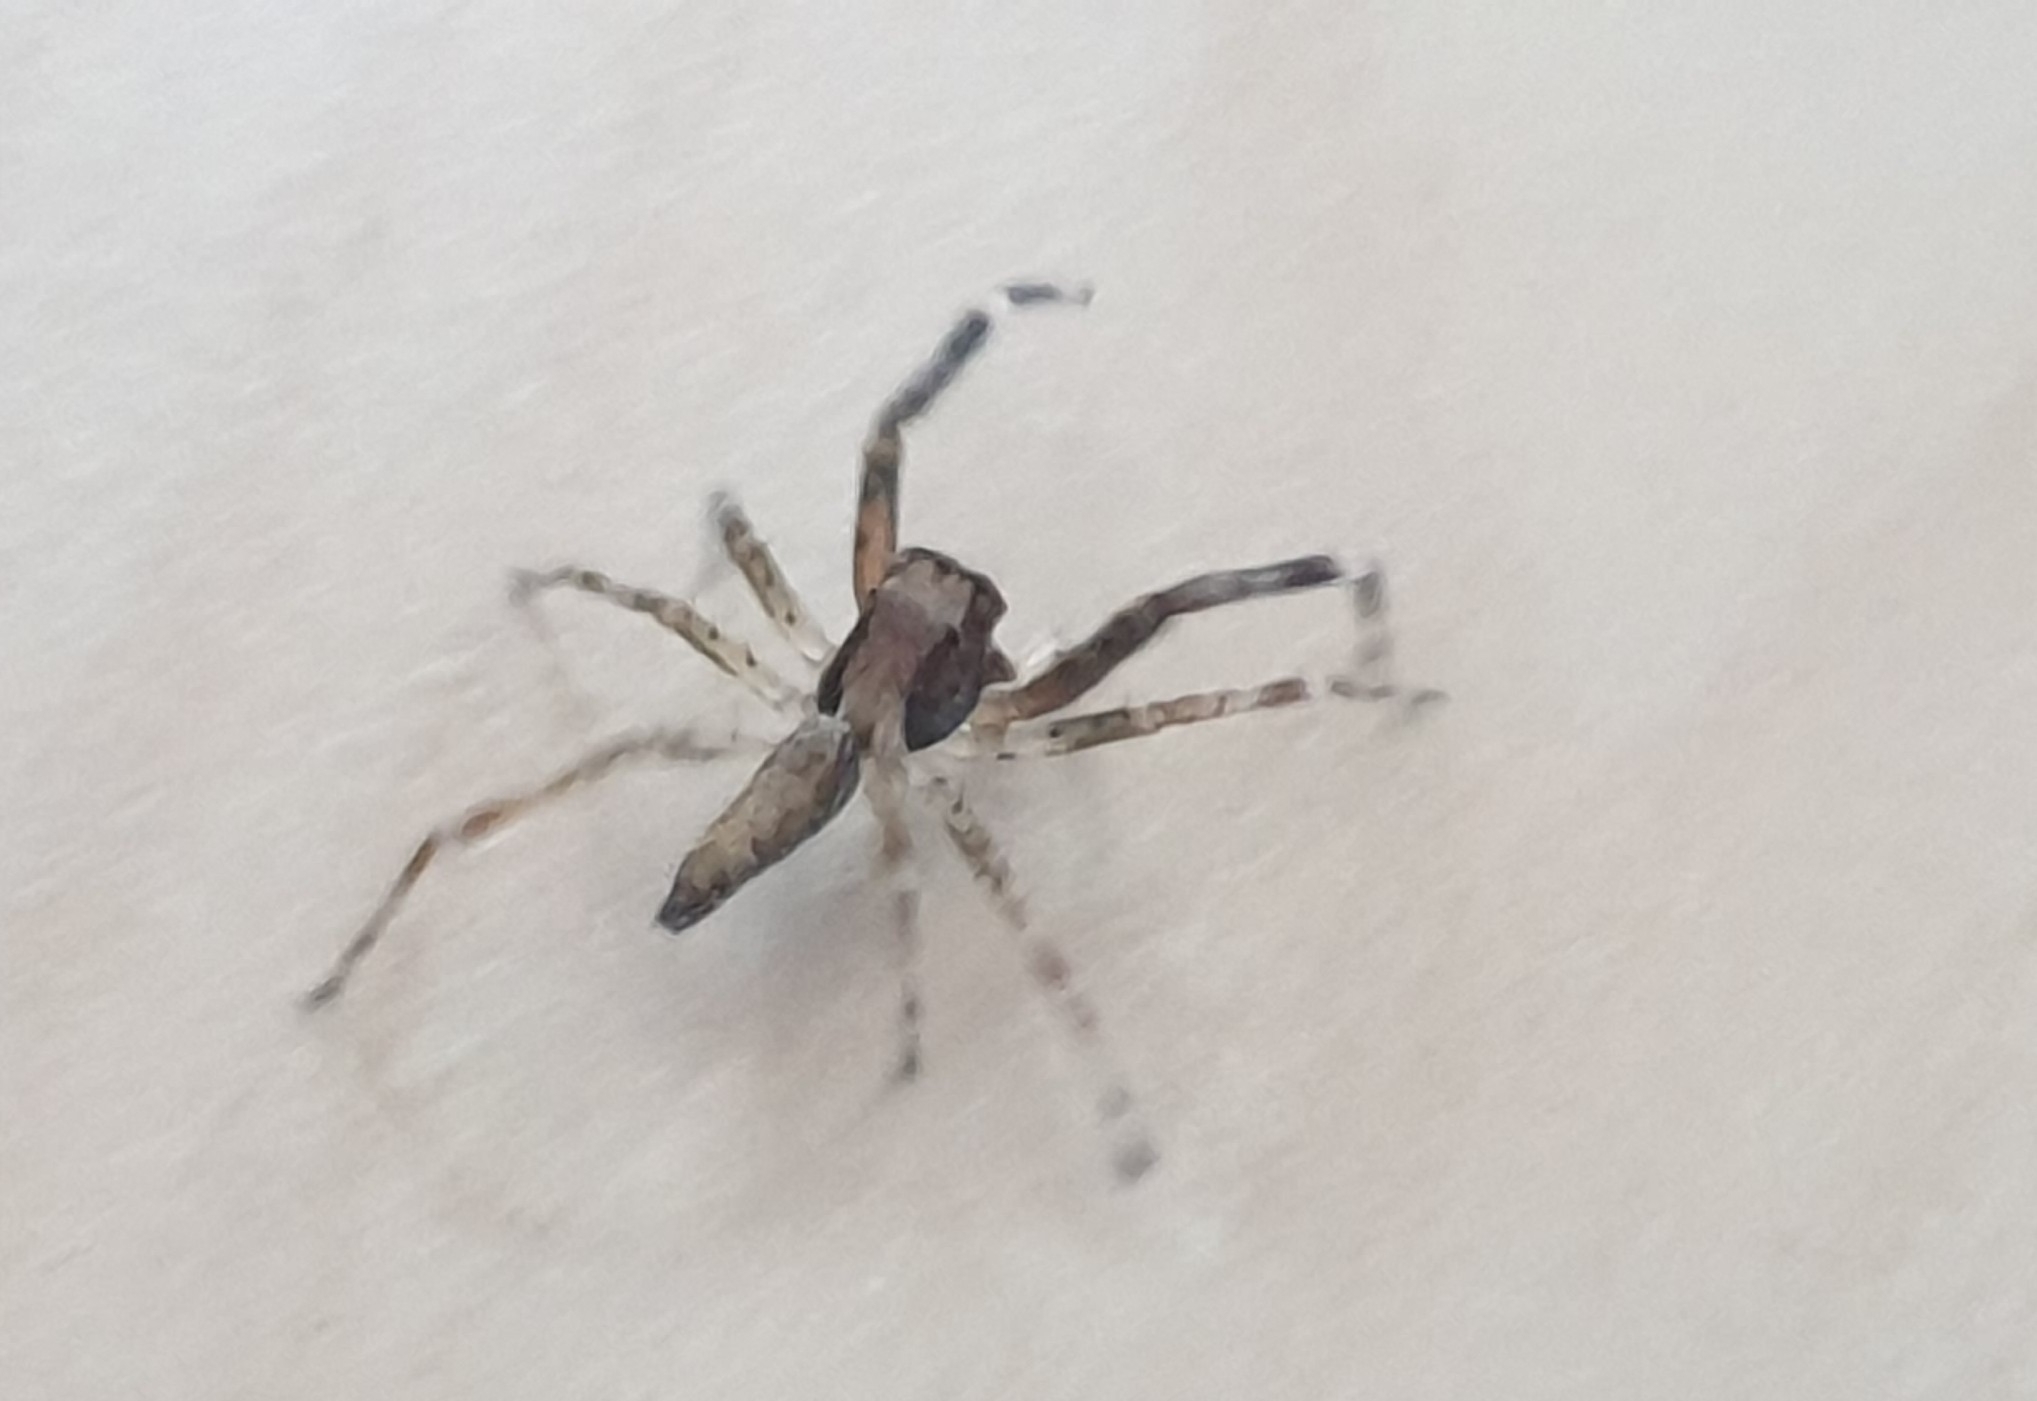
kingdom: Animalia
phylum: Arthropoda
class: Arachnida
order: Araneae
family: Salticidae
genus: Helpis
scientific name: Helpis minitabunda
